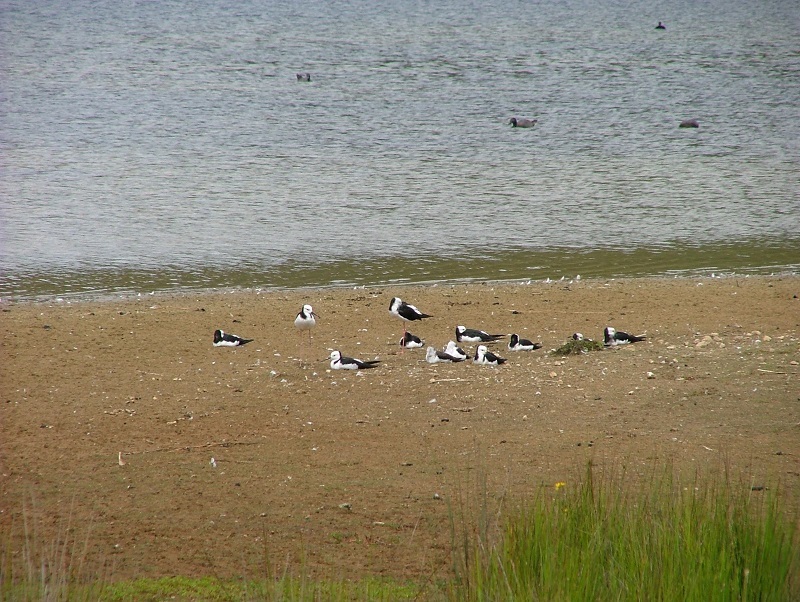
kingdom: Animalia
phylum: Chordata
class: Aves
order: Charadriiformes
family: Recurvirostridae
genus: Himantopus
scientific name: Himantopus leucocephalus
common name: White-headed stilt
